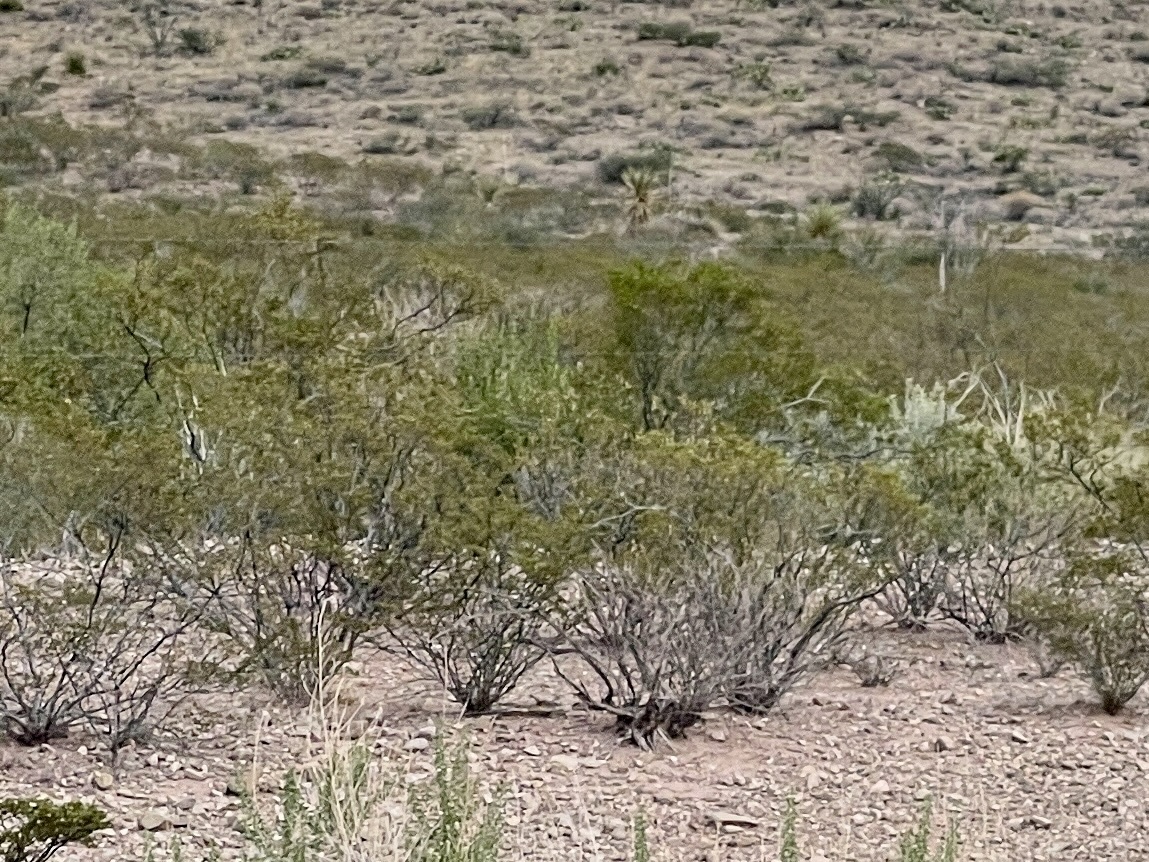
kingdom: Plantae
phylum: Tracheophyta
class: Magnoliopsida
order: Zygophyllales
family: Zygophyllaceae
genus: Larrea
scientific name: Larrea tridentata
